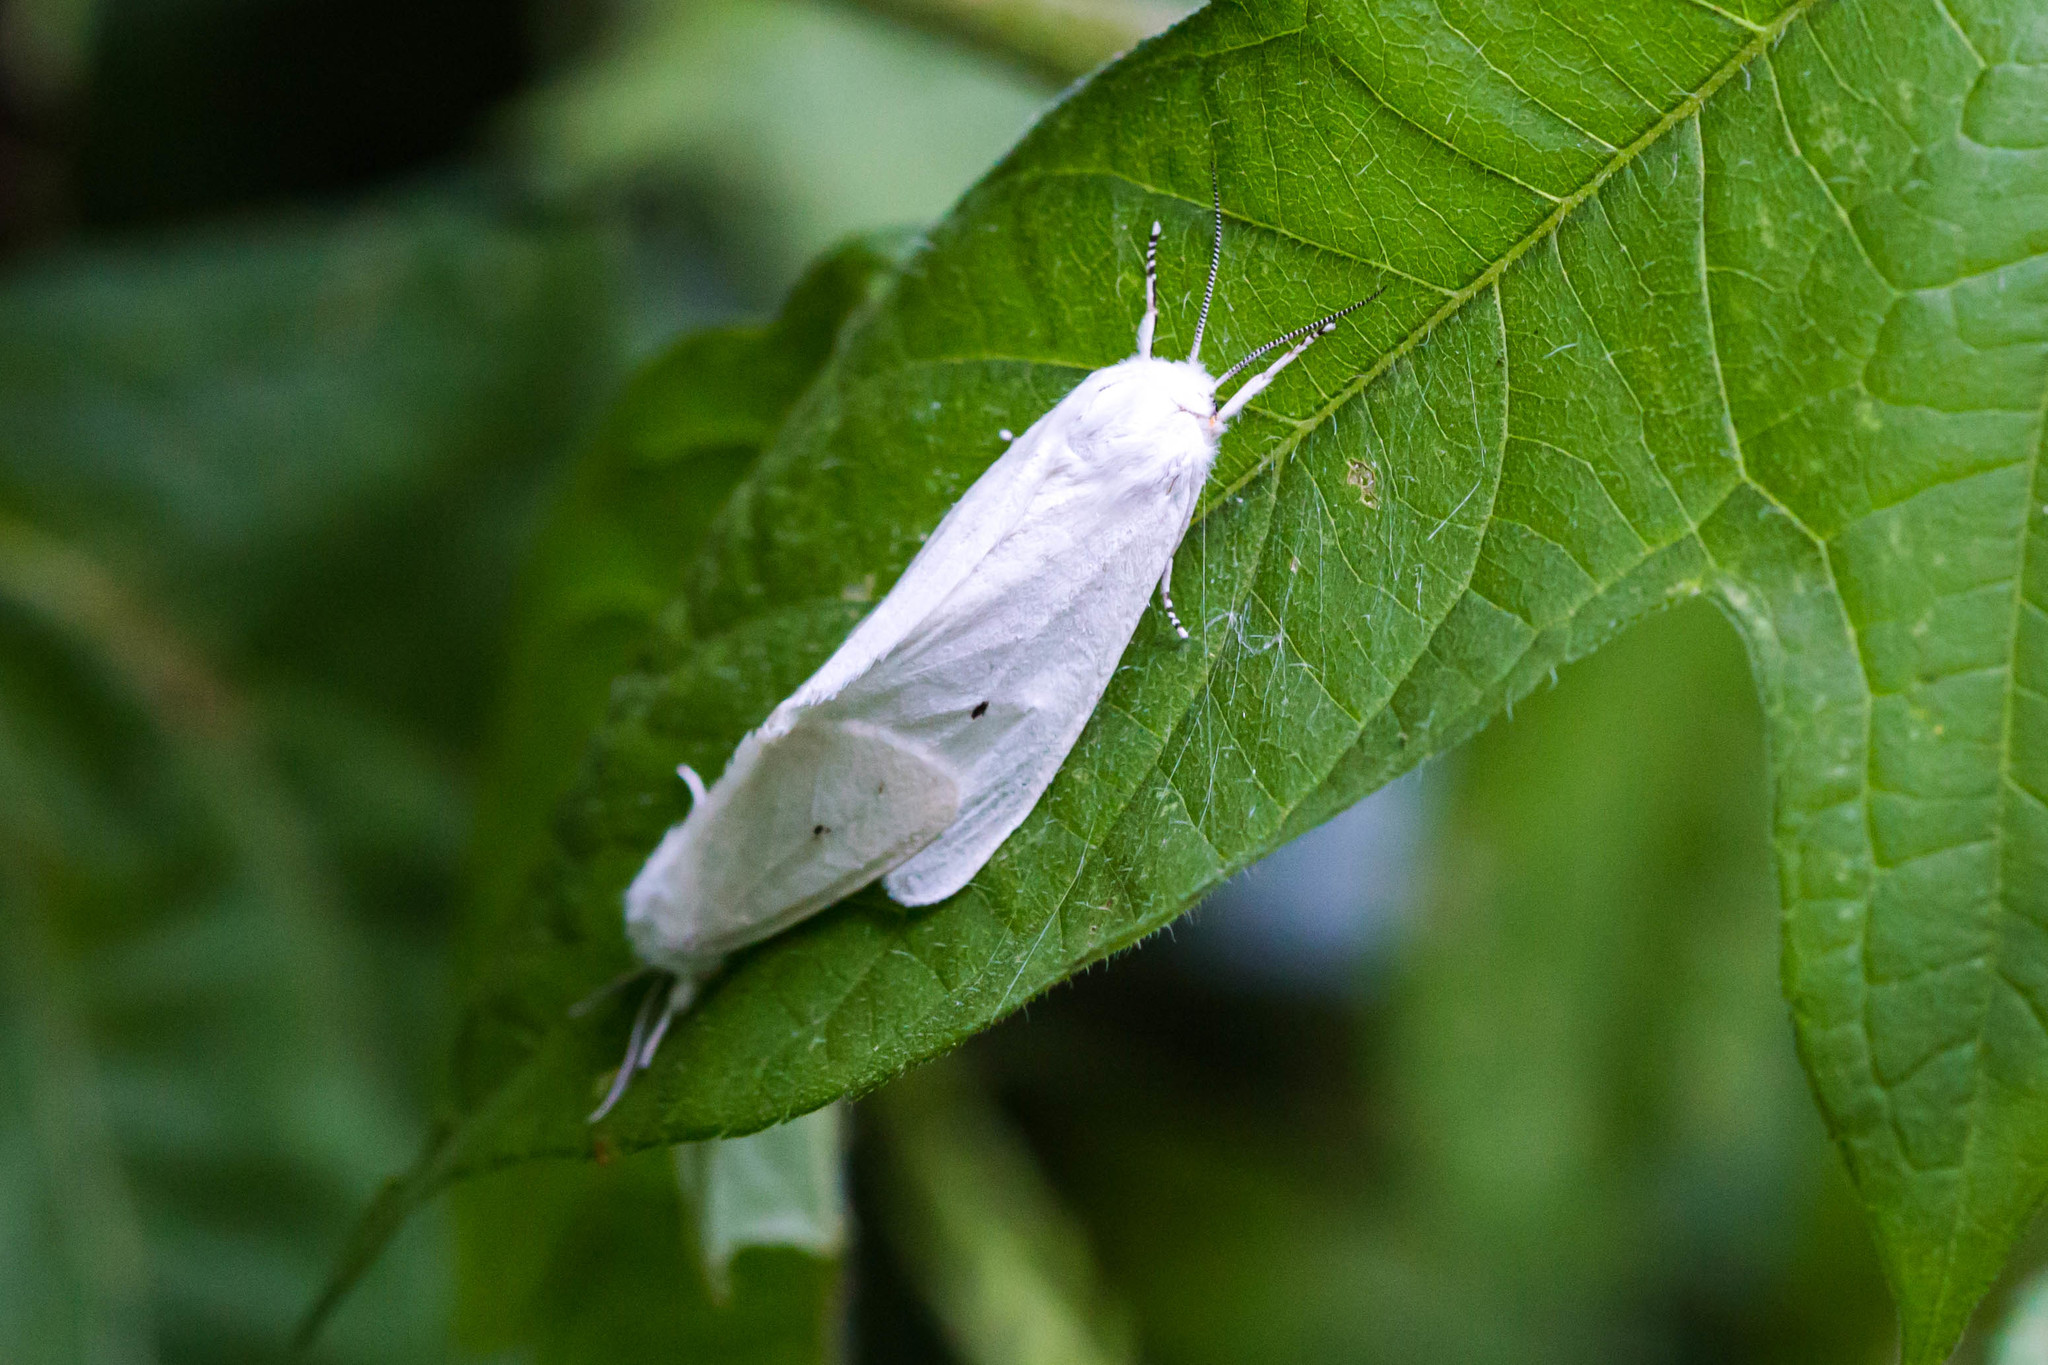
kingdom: Animalia
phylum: Arthropoda
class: Insecta
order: Lepidoptera
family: Erebidae
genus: Spilosoma
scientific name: Spilosoma virginica
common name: Virginia tiger moth
